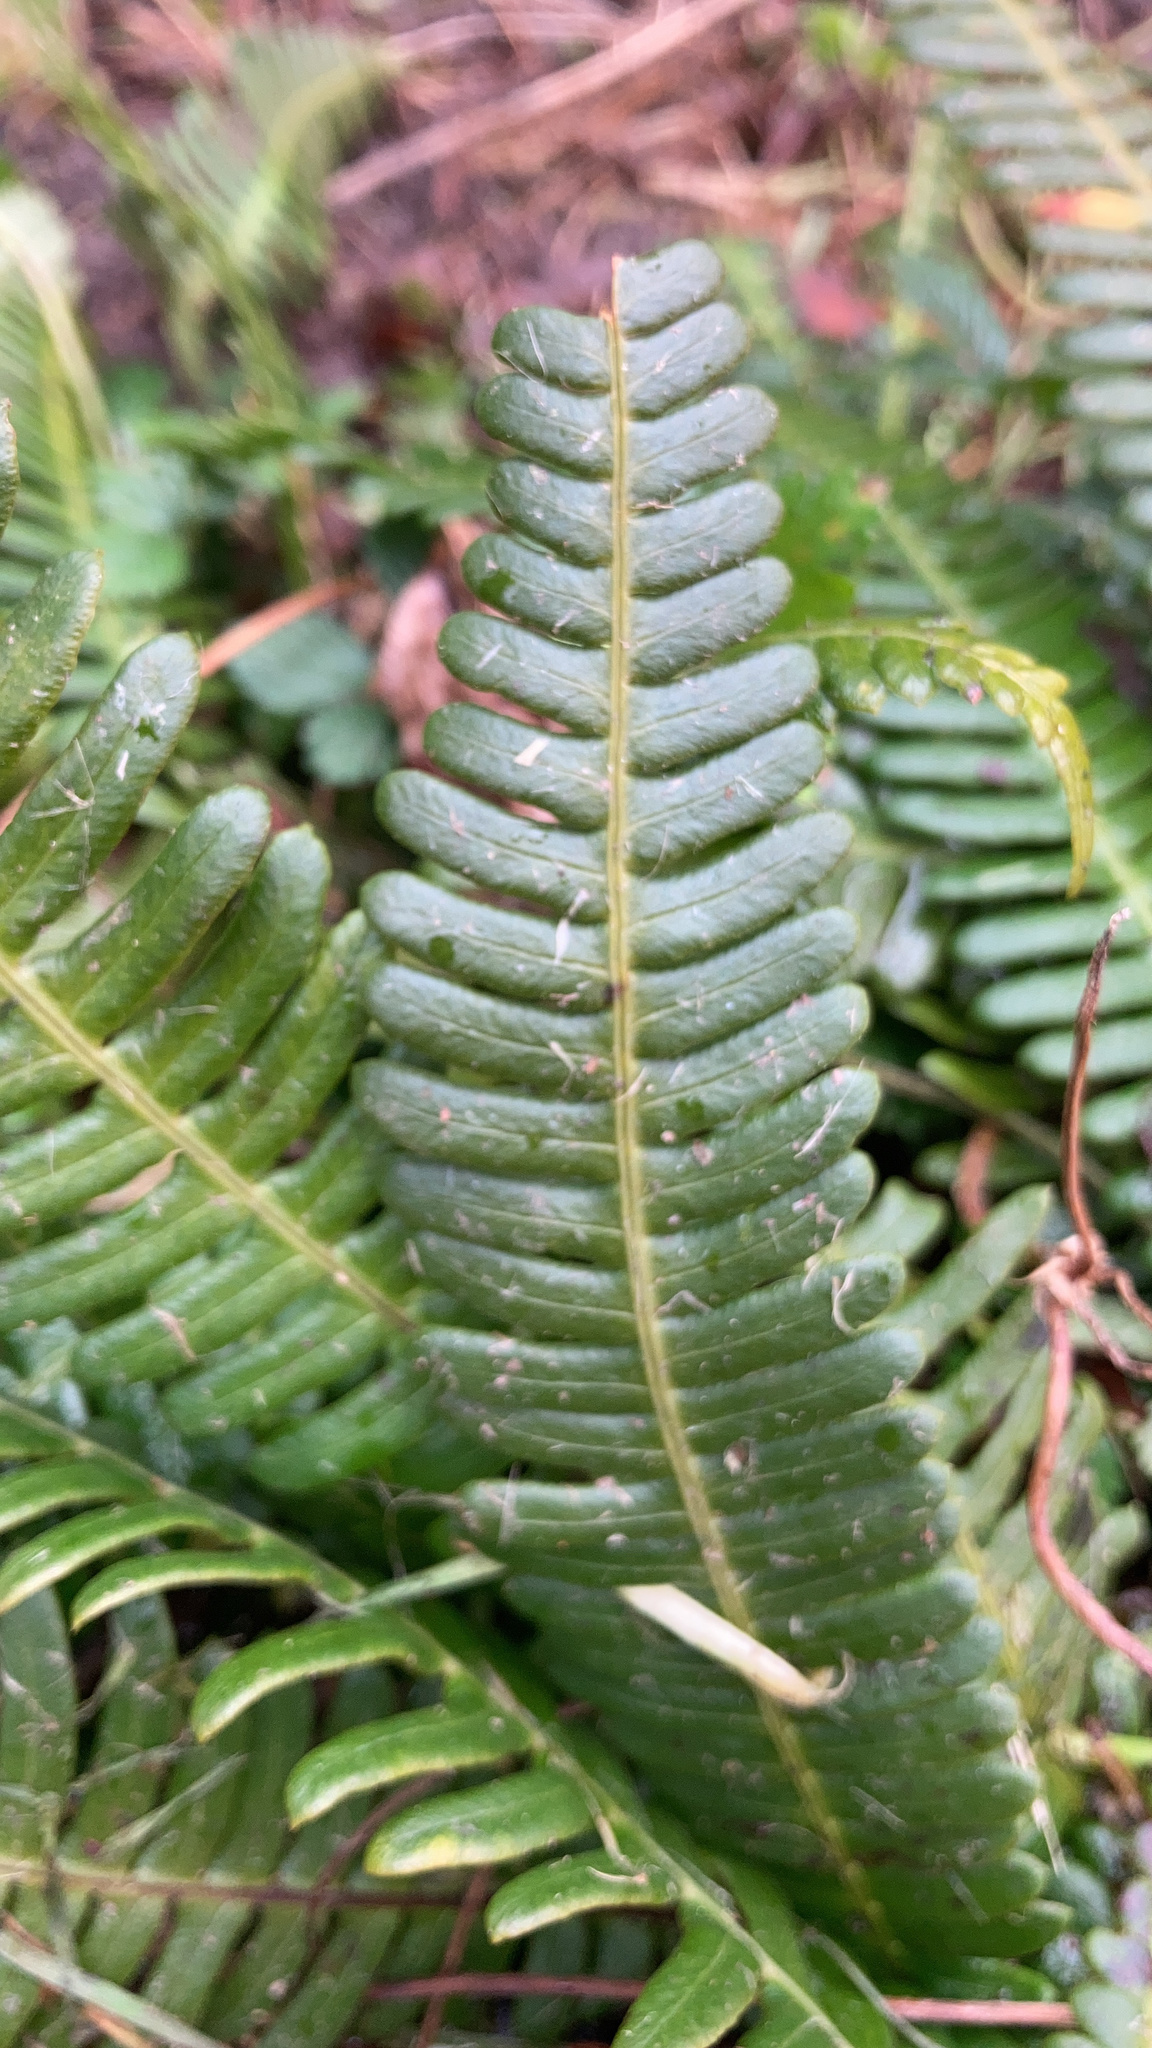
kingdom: Plantae
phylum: Tracheophyta
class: Polypodiopsida
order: Polypodiales
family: Blechnaceae
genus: Struthiopteris
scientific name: Struthiopteris spicant
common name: Deer fern
